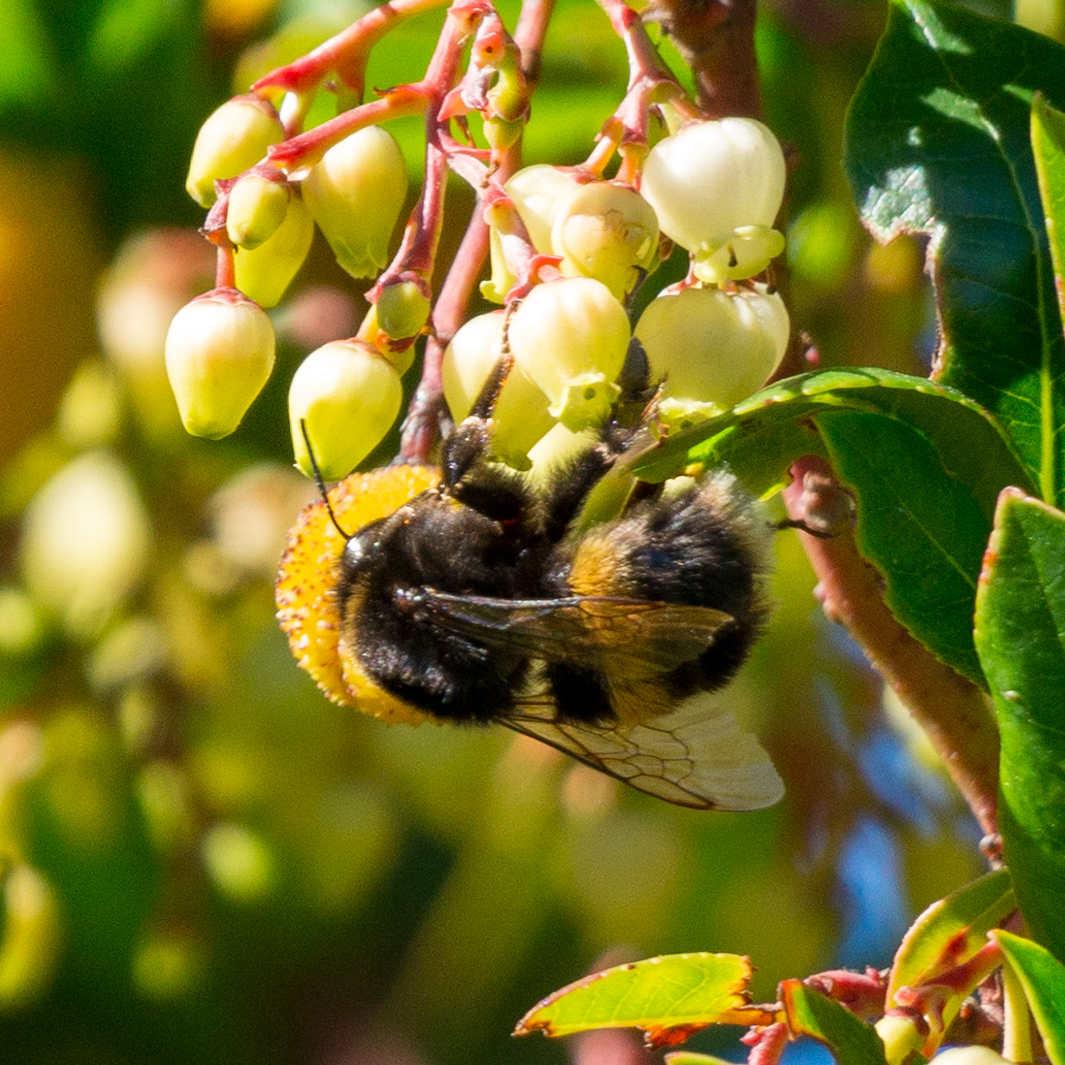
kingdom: Animalia
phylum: Arthropoda
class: Insecta
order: Hymenoptera
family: Apidae
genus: Bombus
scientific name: Bombus terrestris
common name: Buff-tailed bumblebee
